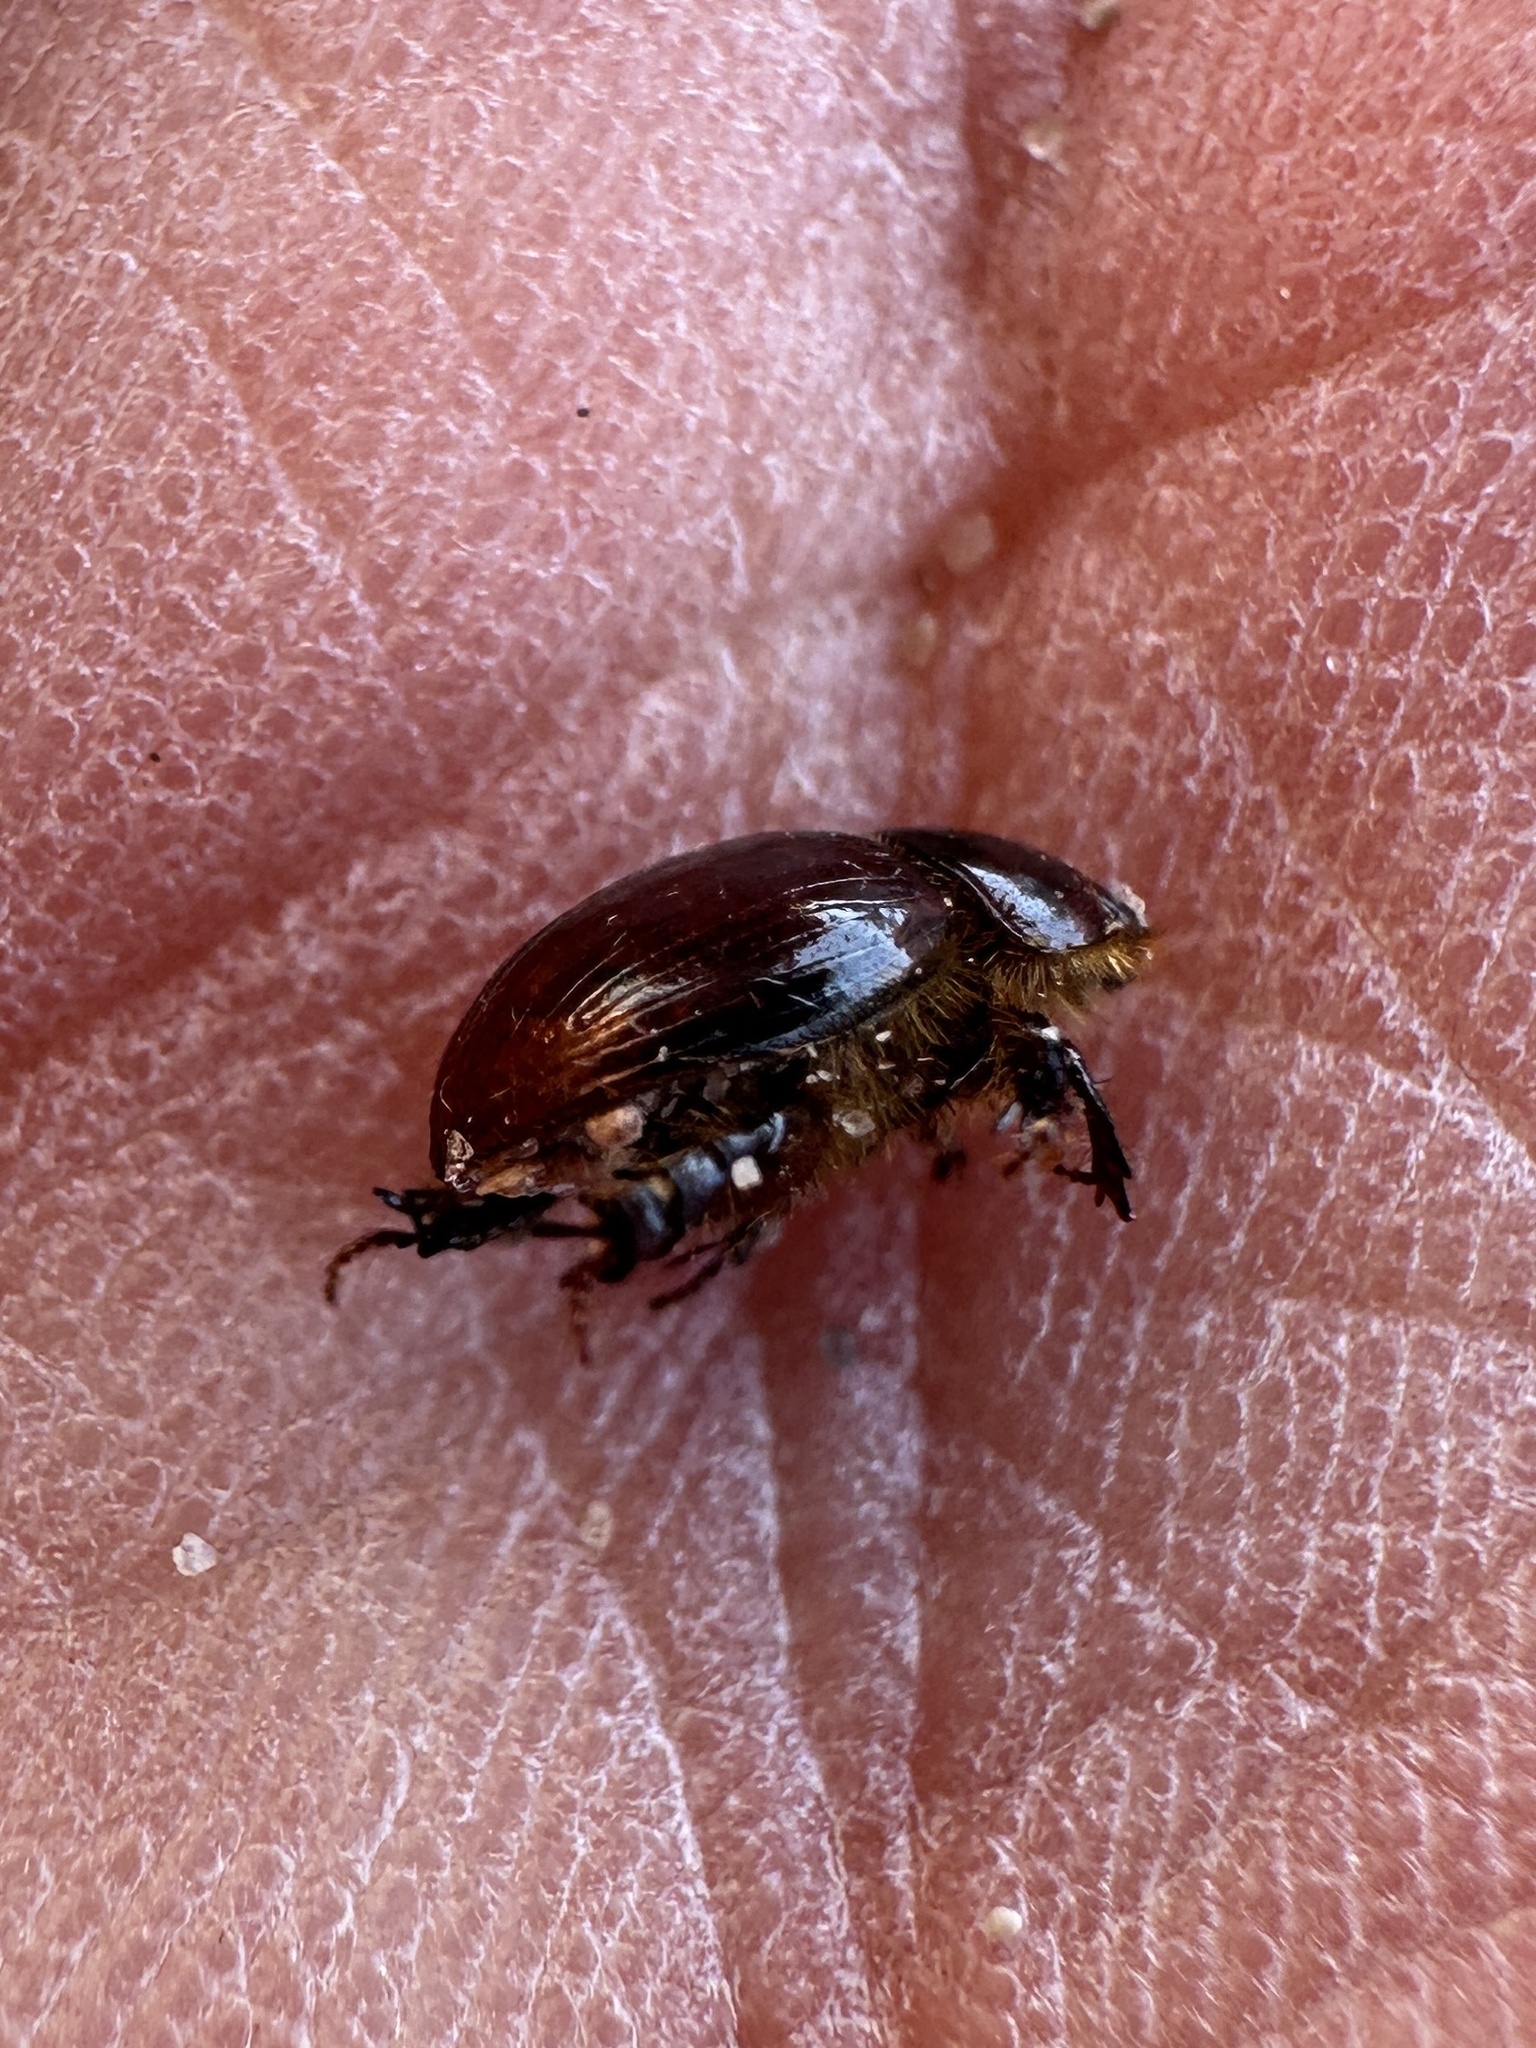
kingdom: Animalia
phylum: Arthropoda
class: Insecta
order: Coleoptera
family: Scarabaeidae
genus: Aegialia
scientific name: Aegialia magnifica
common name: Large aegialian scarab
